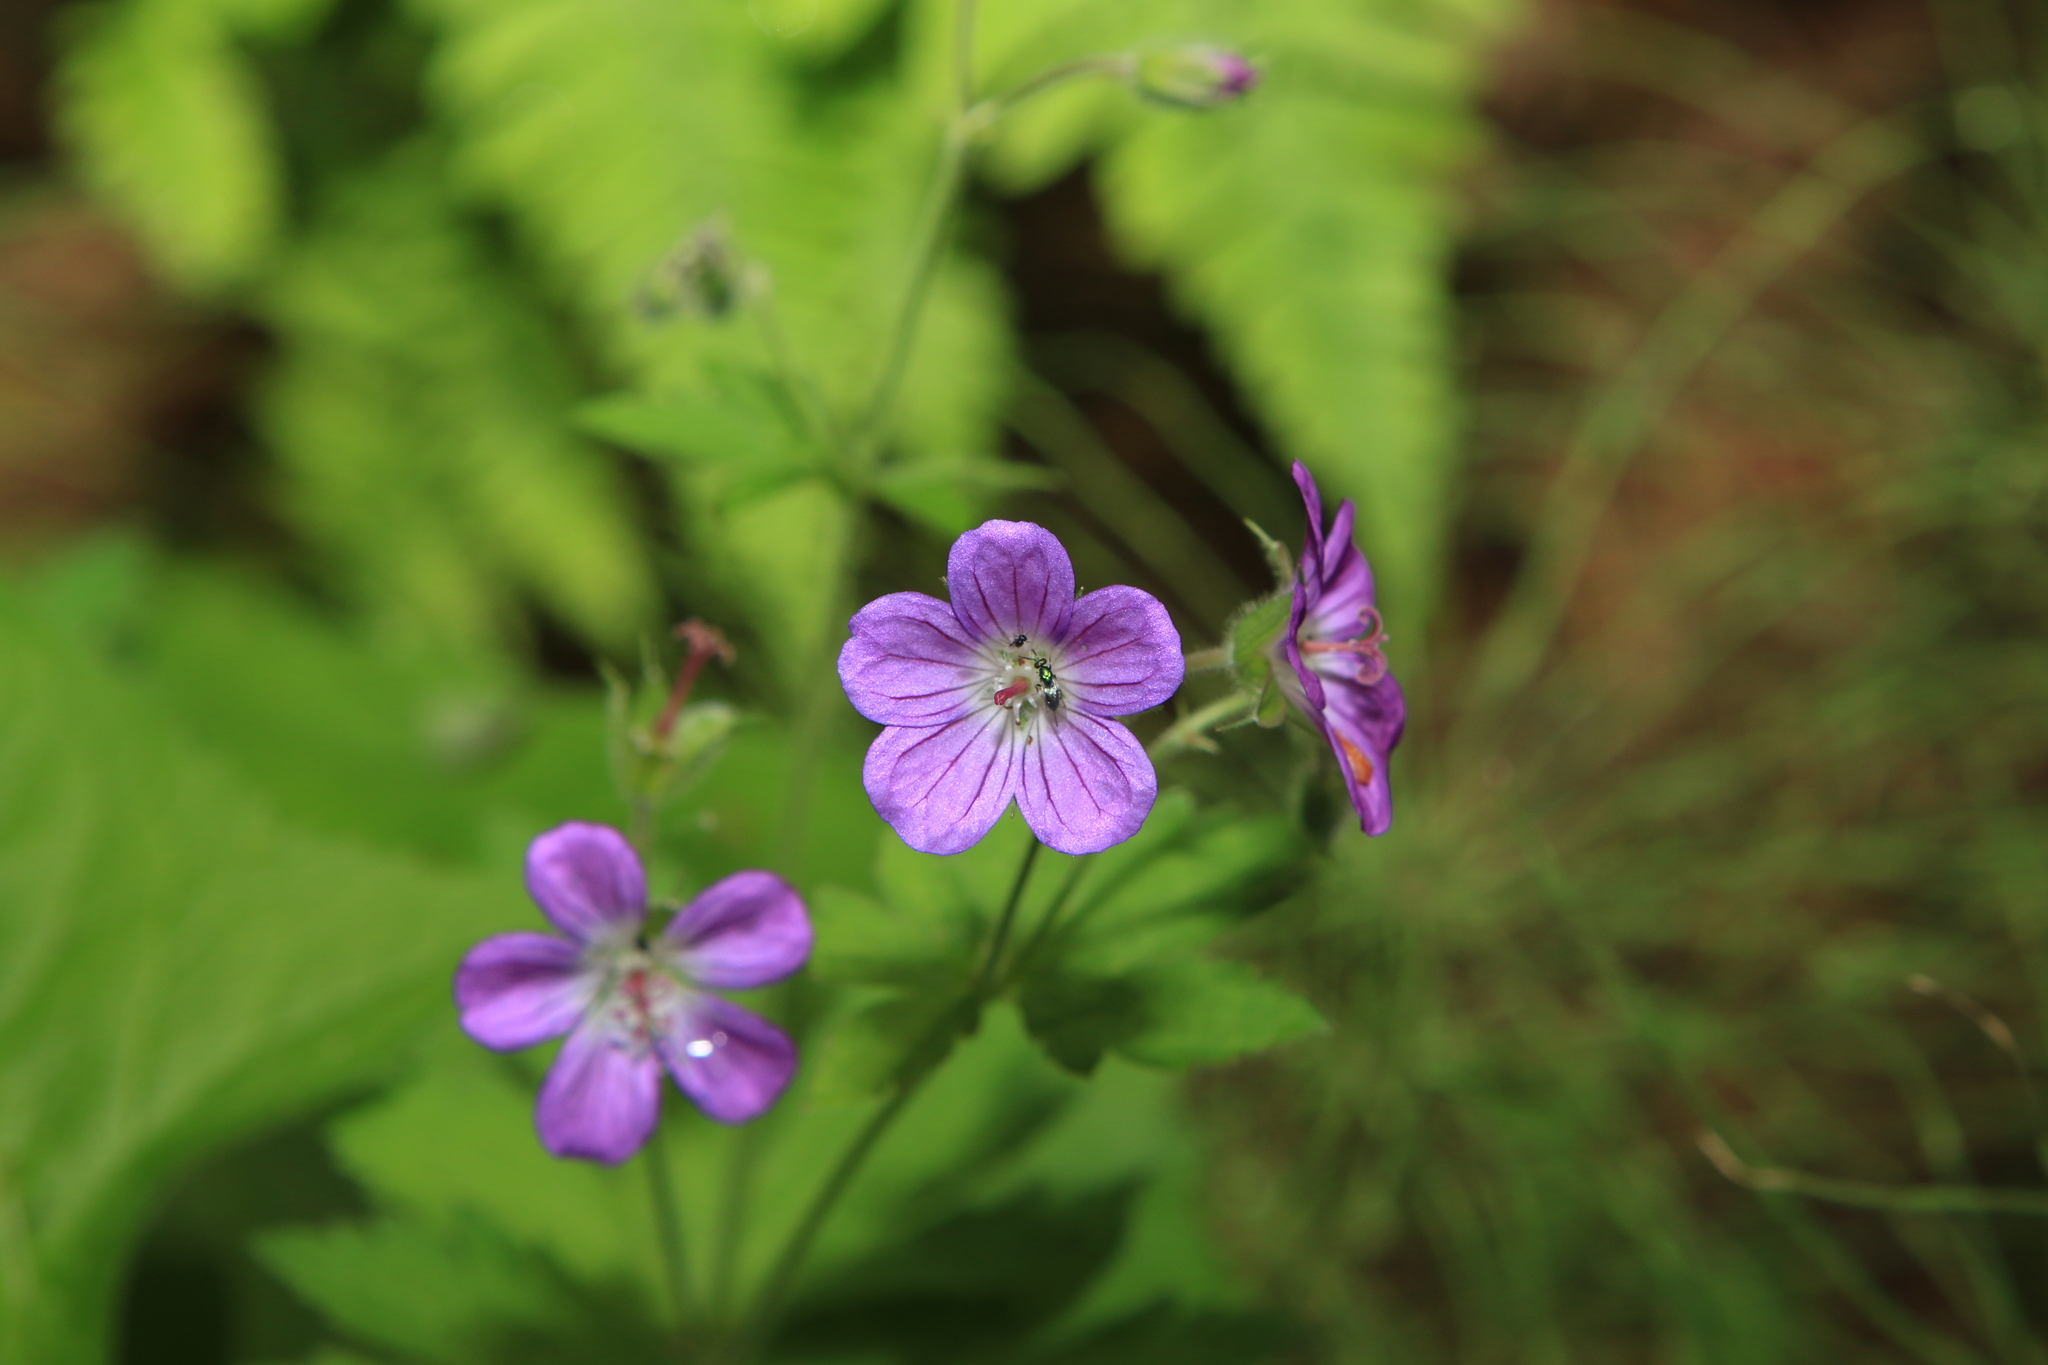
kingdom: Plantae
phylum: Tracheophyta
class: Magnoliopsida
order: Geraniales
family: Geraniaceae
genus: Geranium
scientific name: Geranium sylvaticum
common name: Wood crane's-bill
